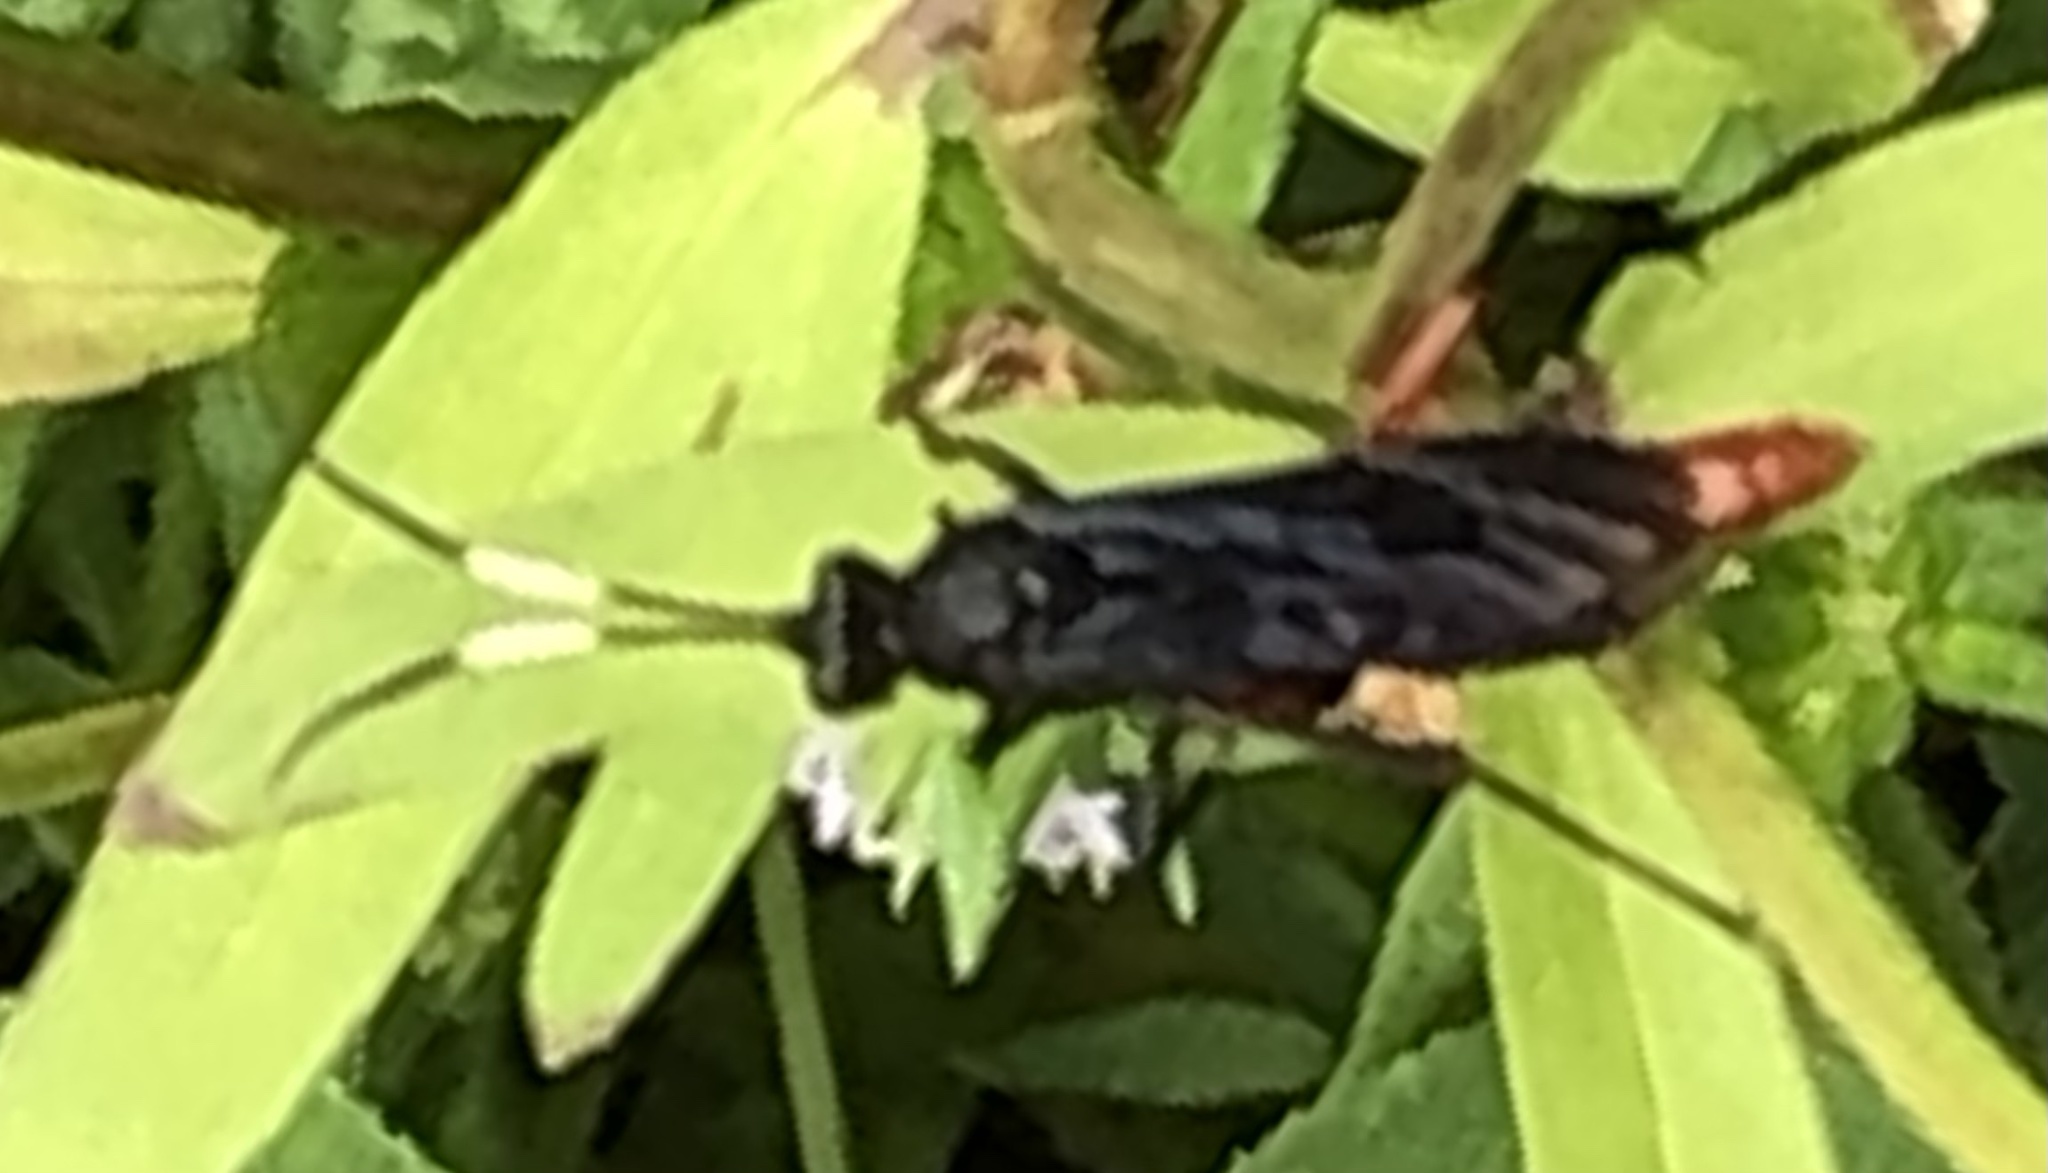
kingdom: Animalia
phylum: Arthropoda
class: Insecta
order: Hymenoptera
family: Ichneumonidae
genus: Limonethe
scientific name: Limonethe maurator
